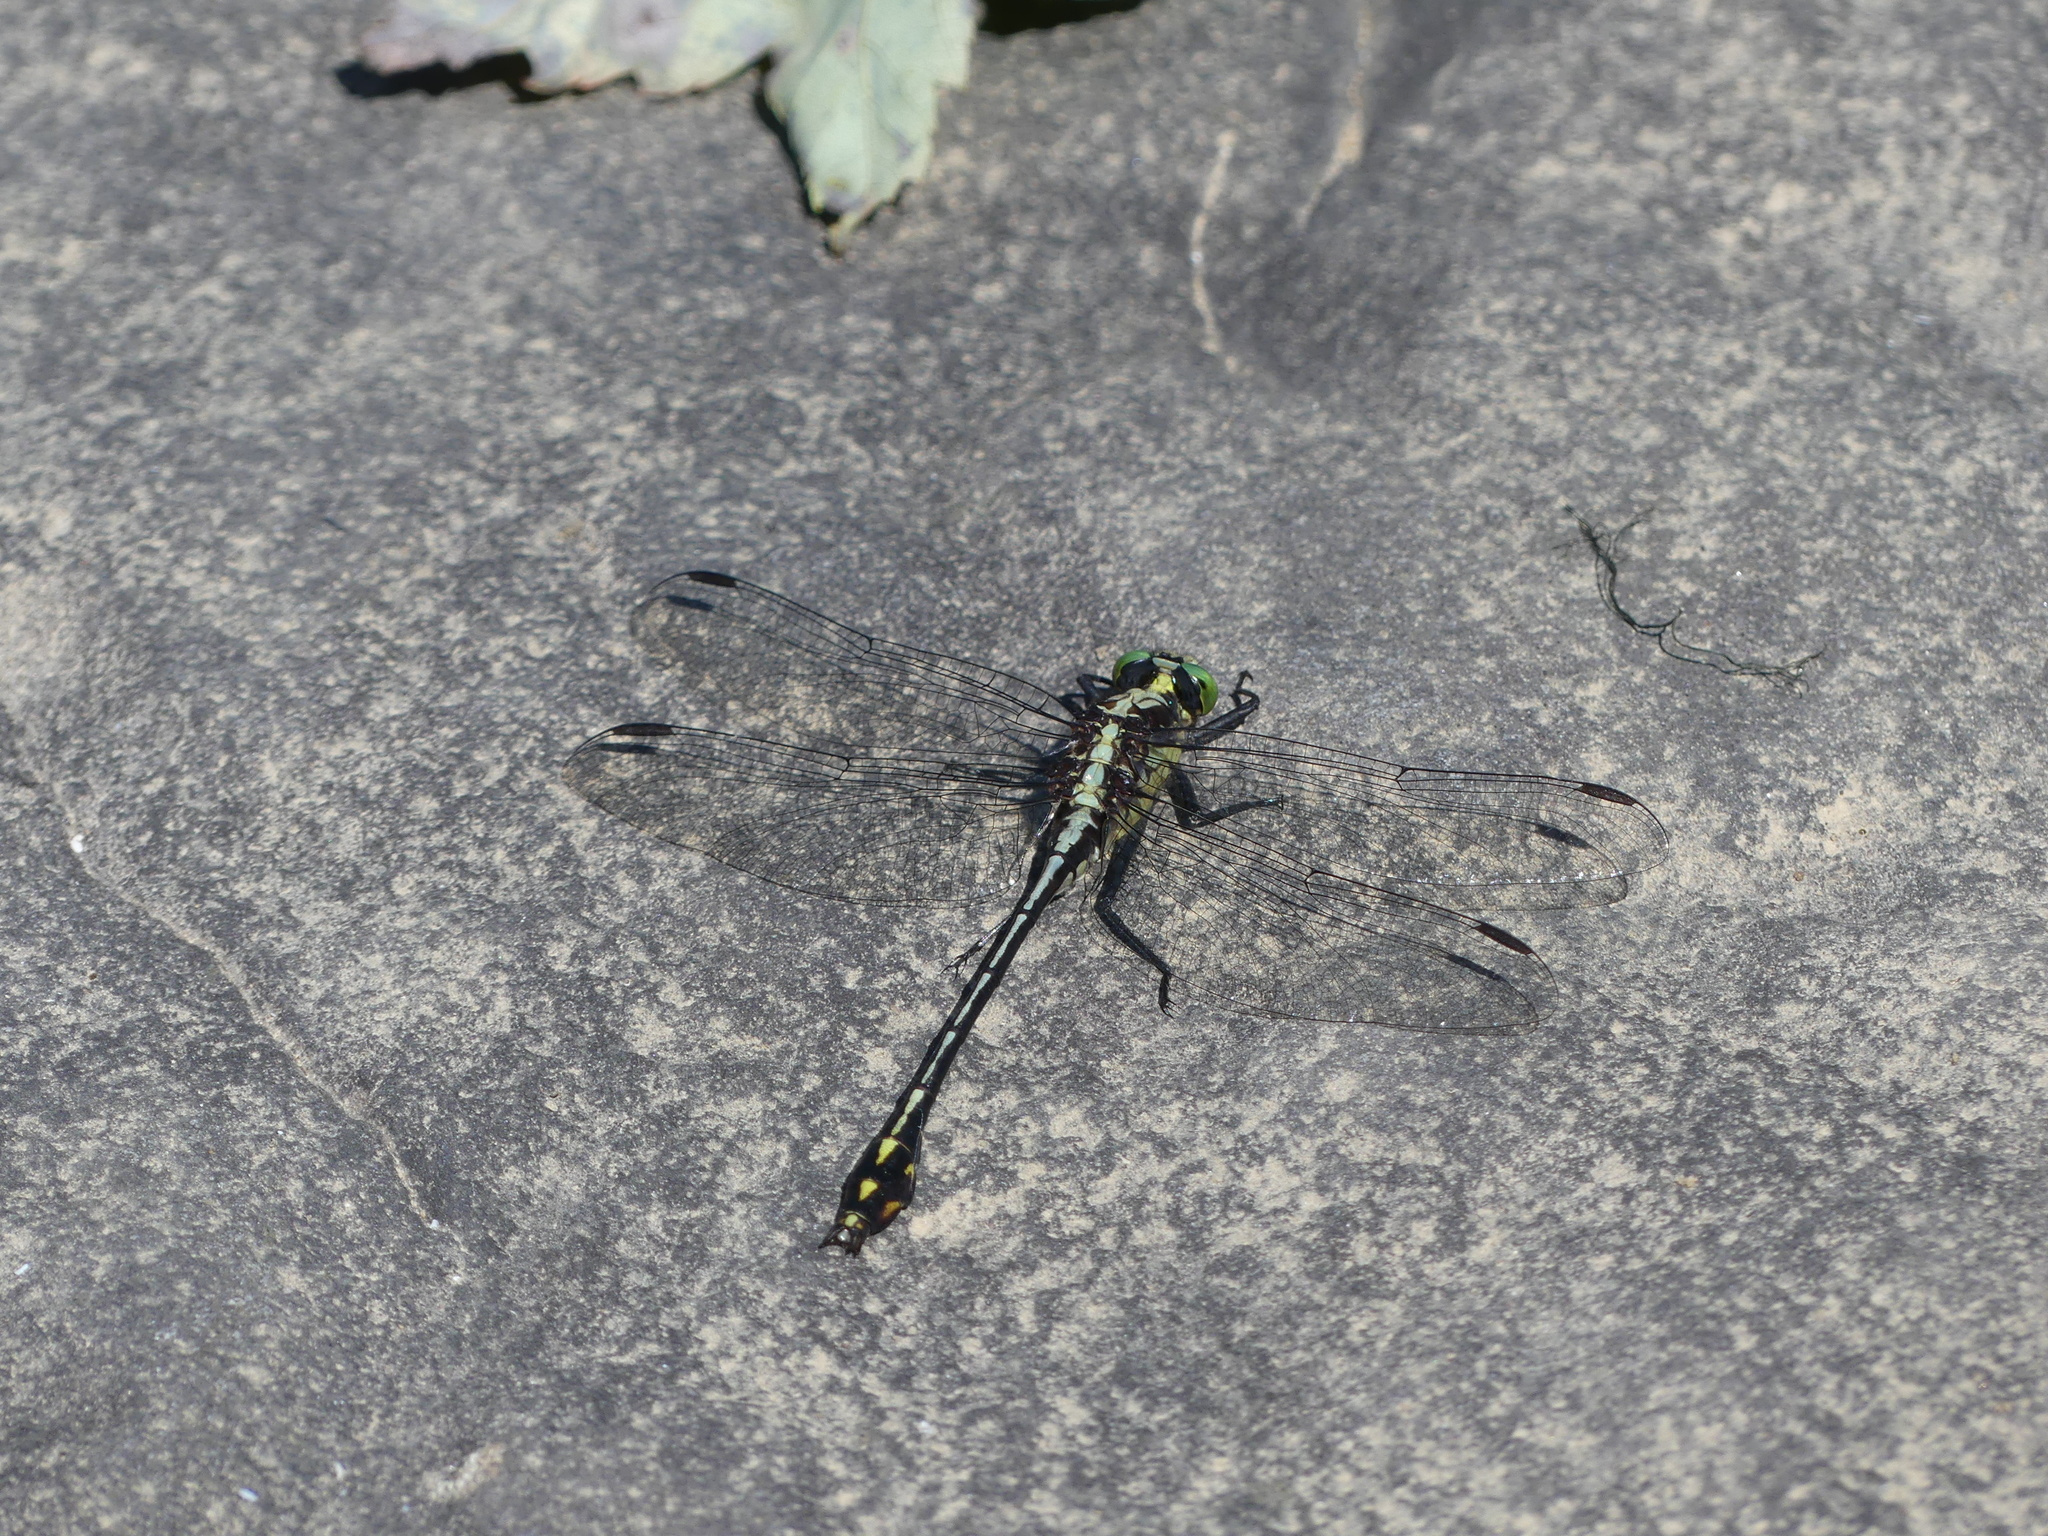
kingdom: Animalia
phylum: Arthropoda
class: Insecta
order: Odonata
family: Gomphidae
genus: Dromogomphus
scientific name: Dromogomphus spinosus
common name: Black-shouldered spinyleg
